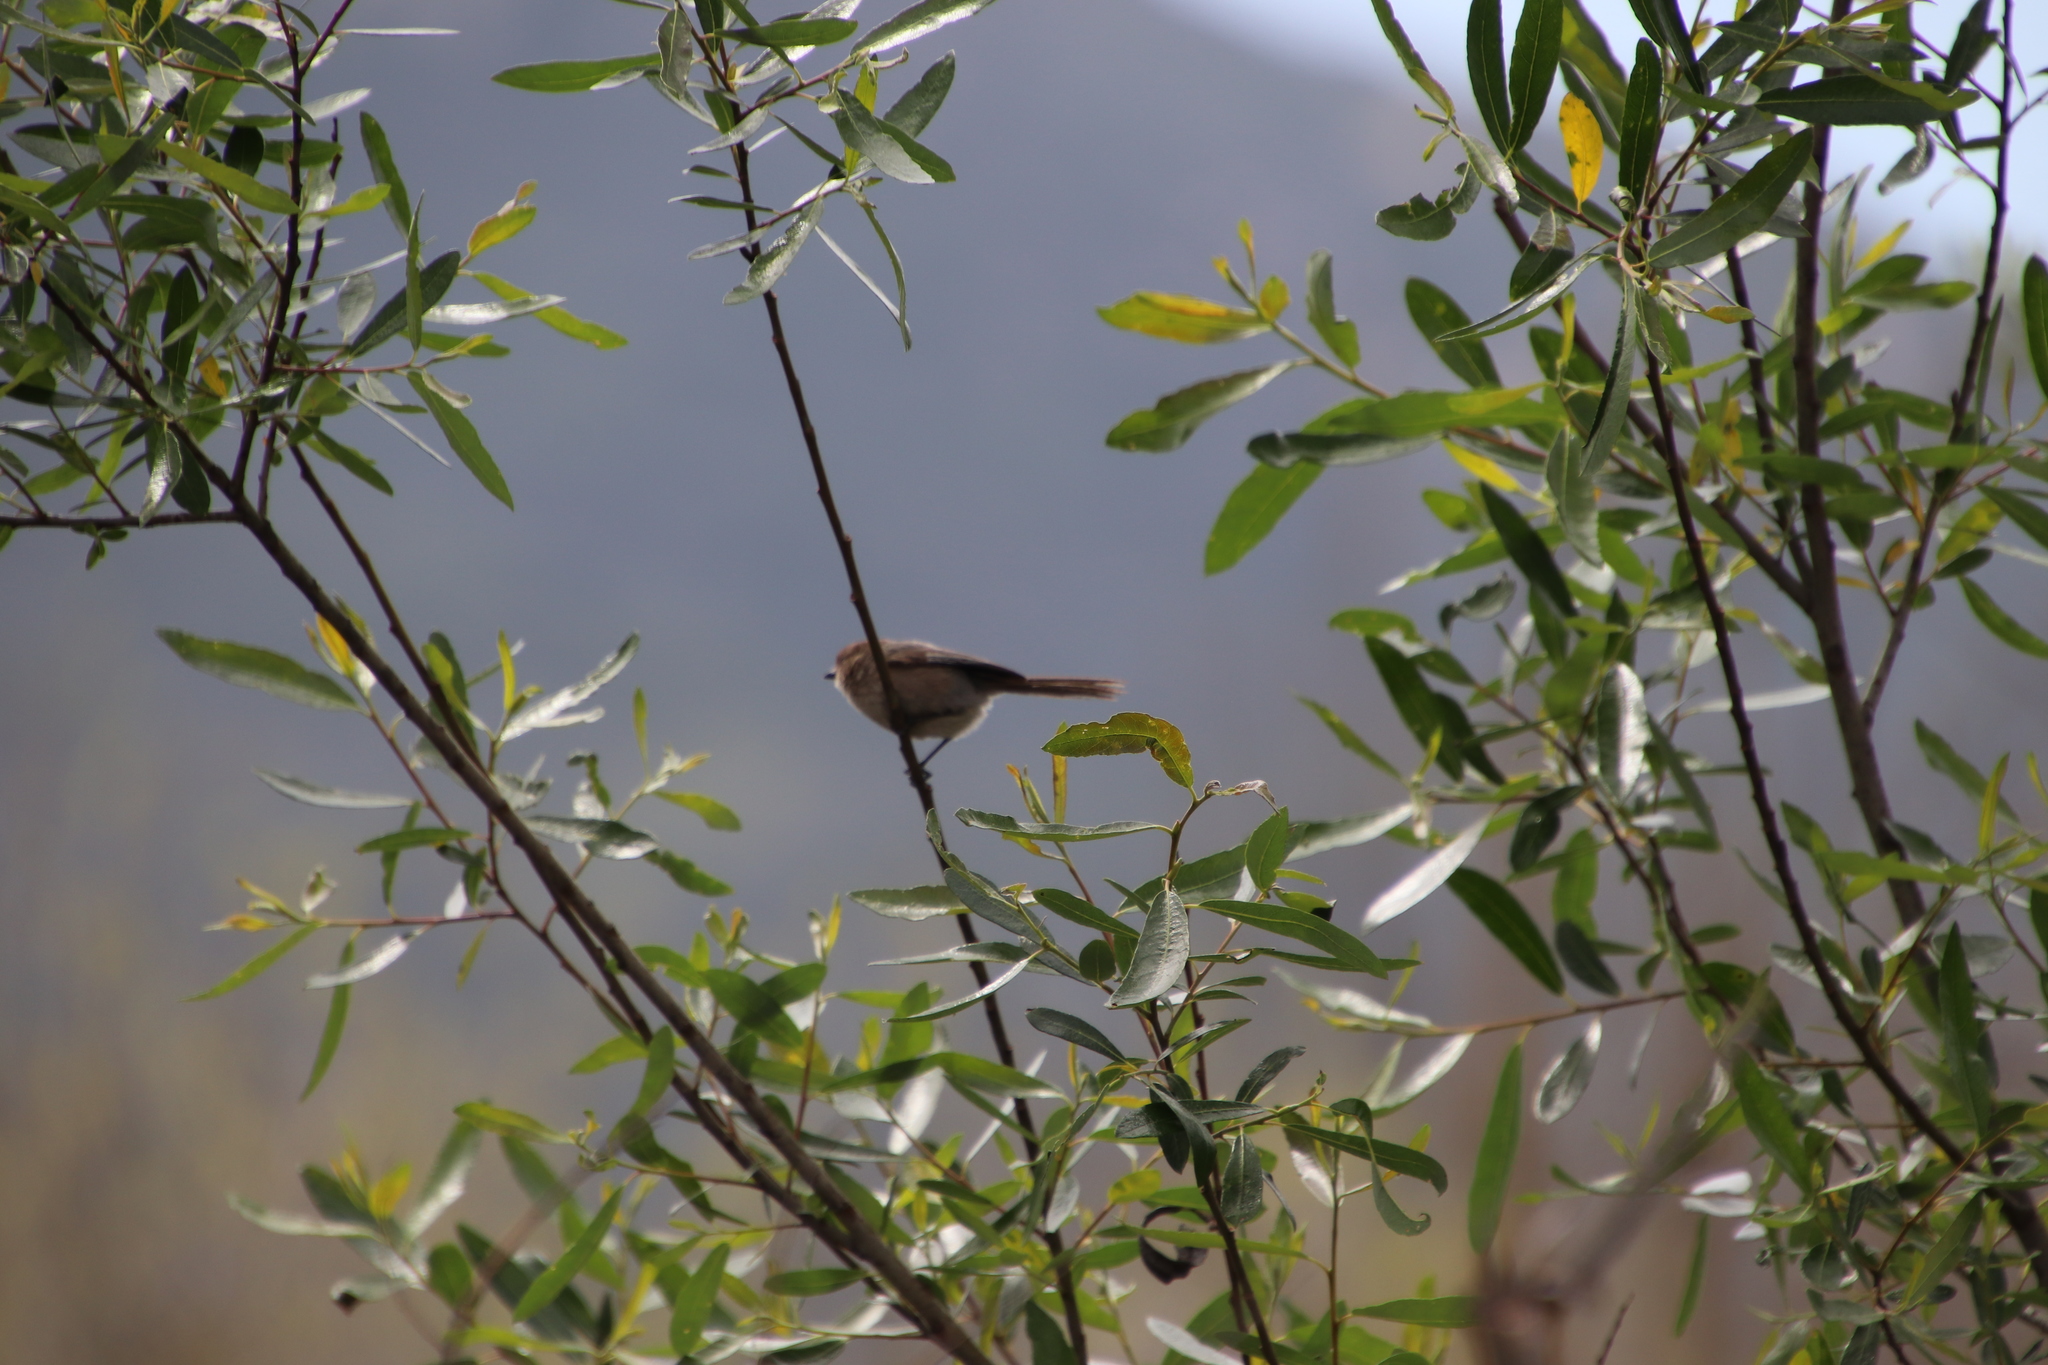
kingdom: Animalia
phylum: Chordata
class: Aves
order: Passeriformes
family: Aegithalidae
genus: Psaltriparus
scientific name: Psaltriparus minimus
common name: American bushtit
